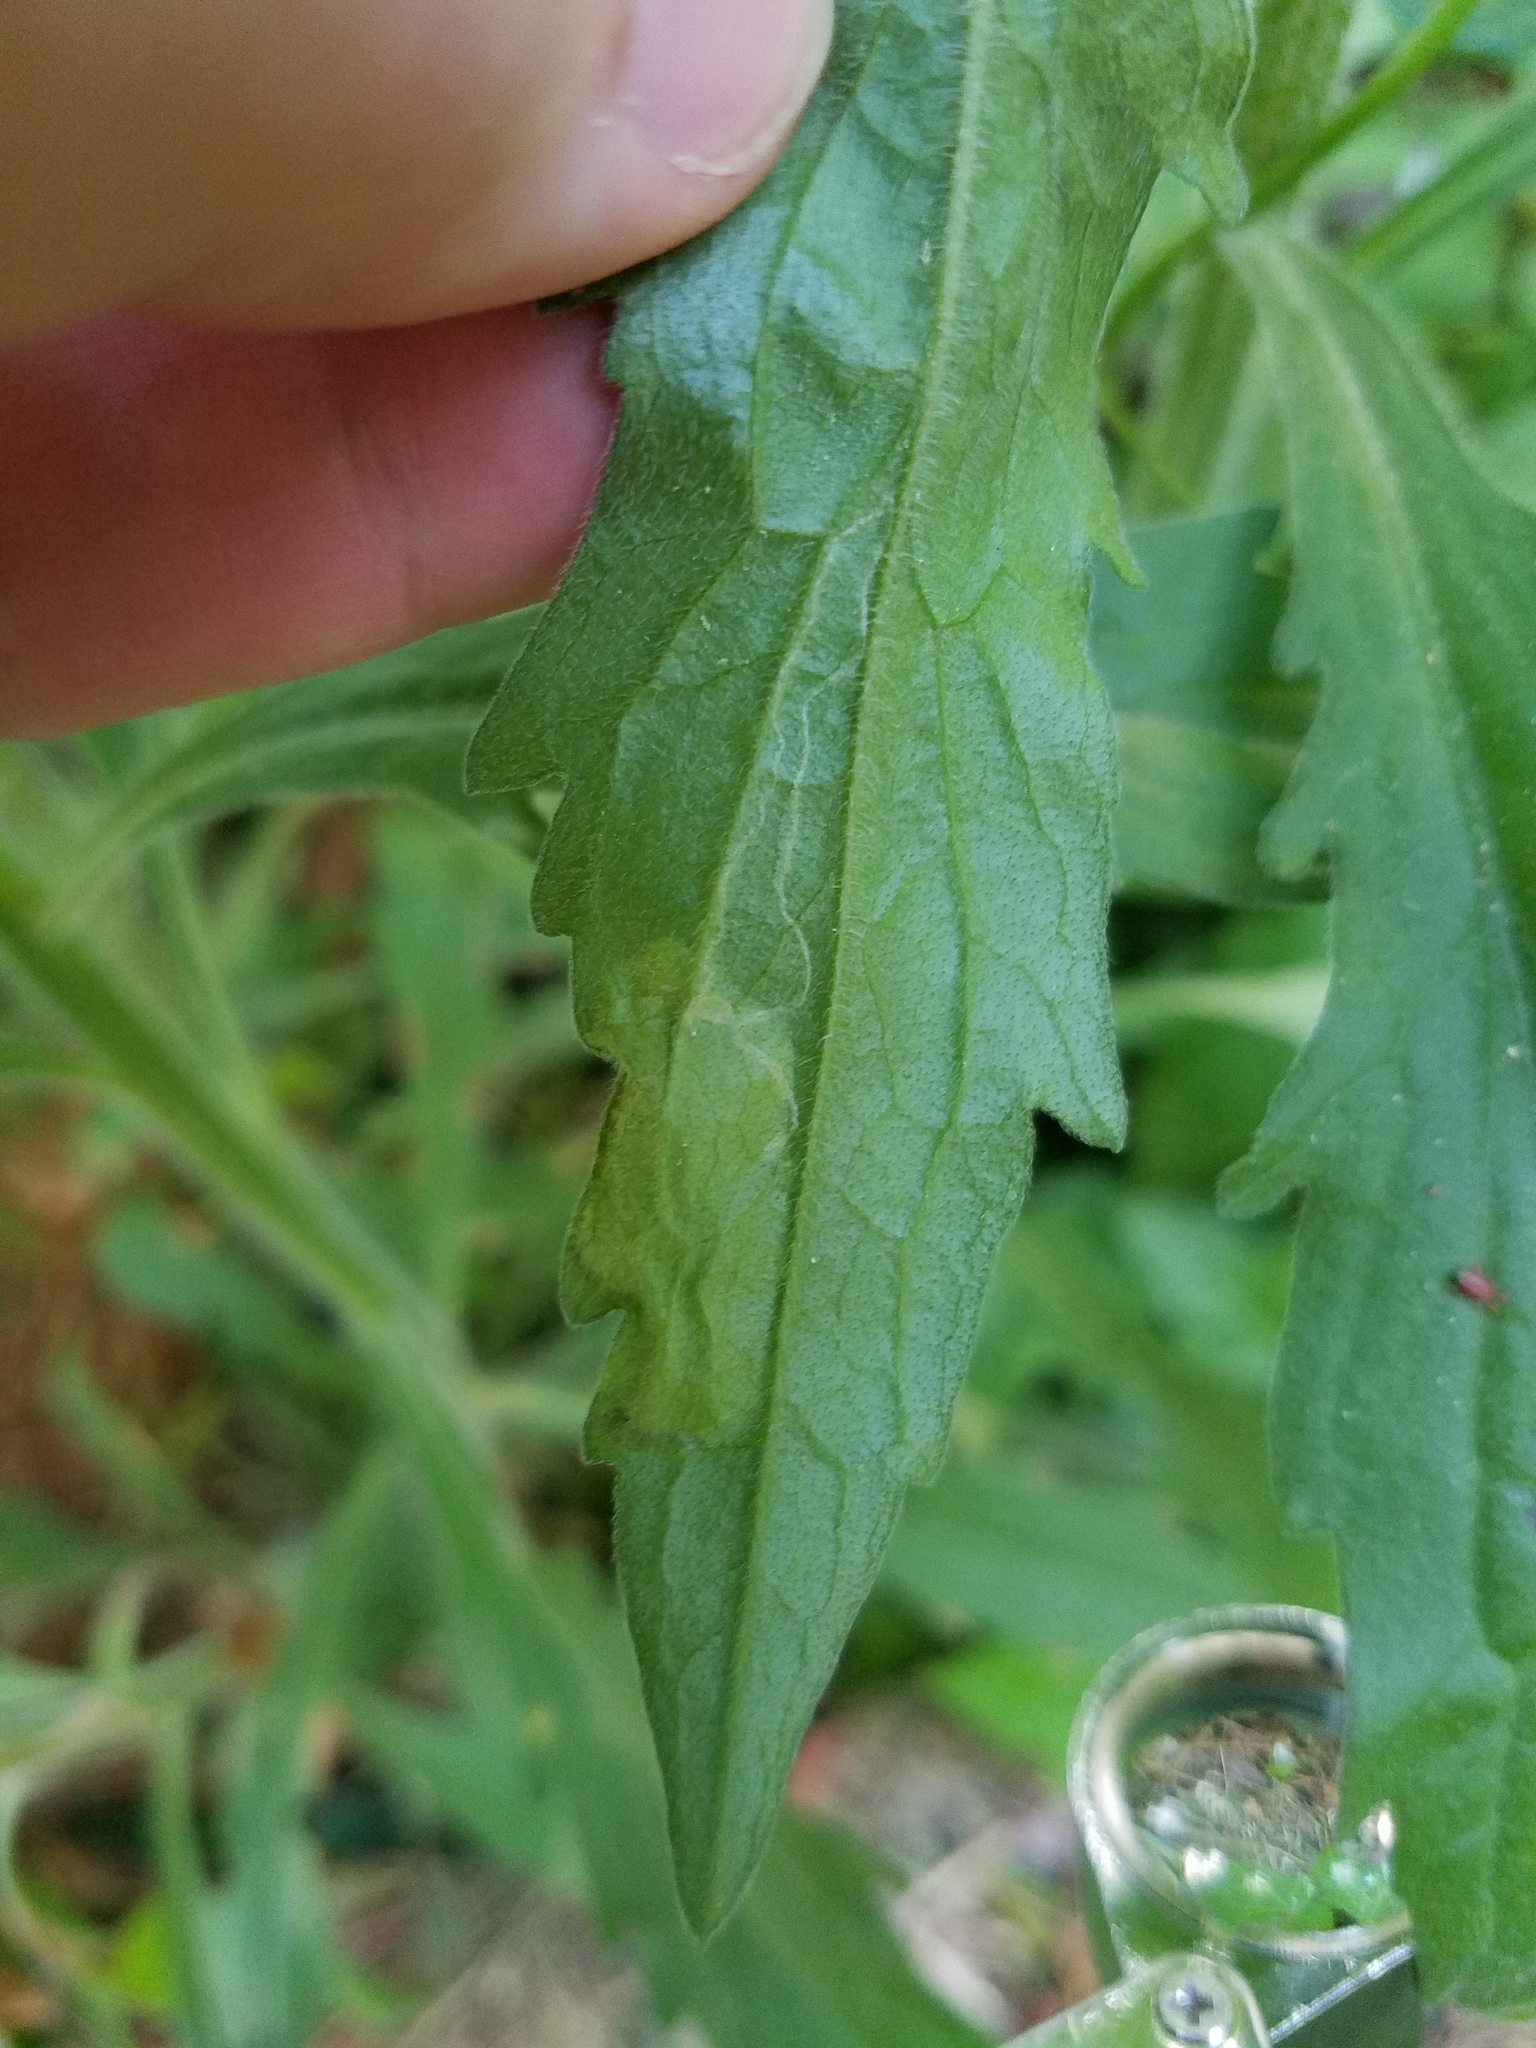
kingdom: Animalia
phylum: Arthropoda
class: Insecta
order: Lepidoptera
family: Gracillariidae
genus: Parectopa
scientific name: Parectopa plantaginisella
